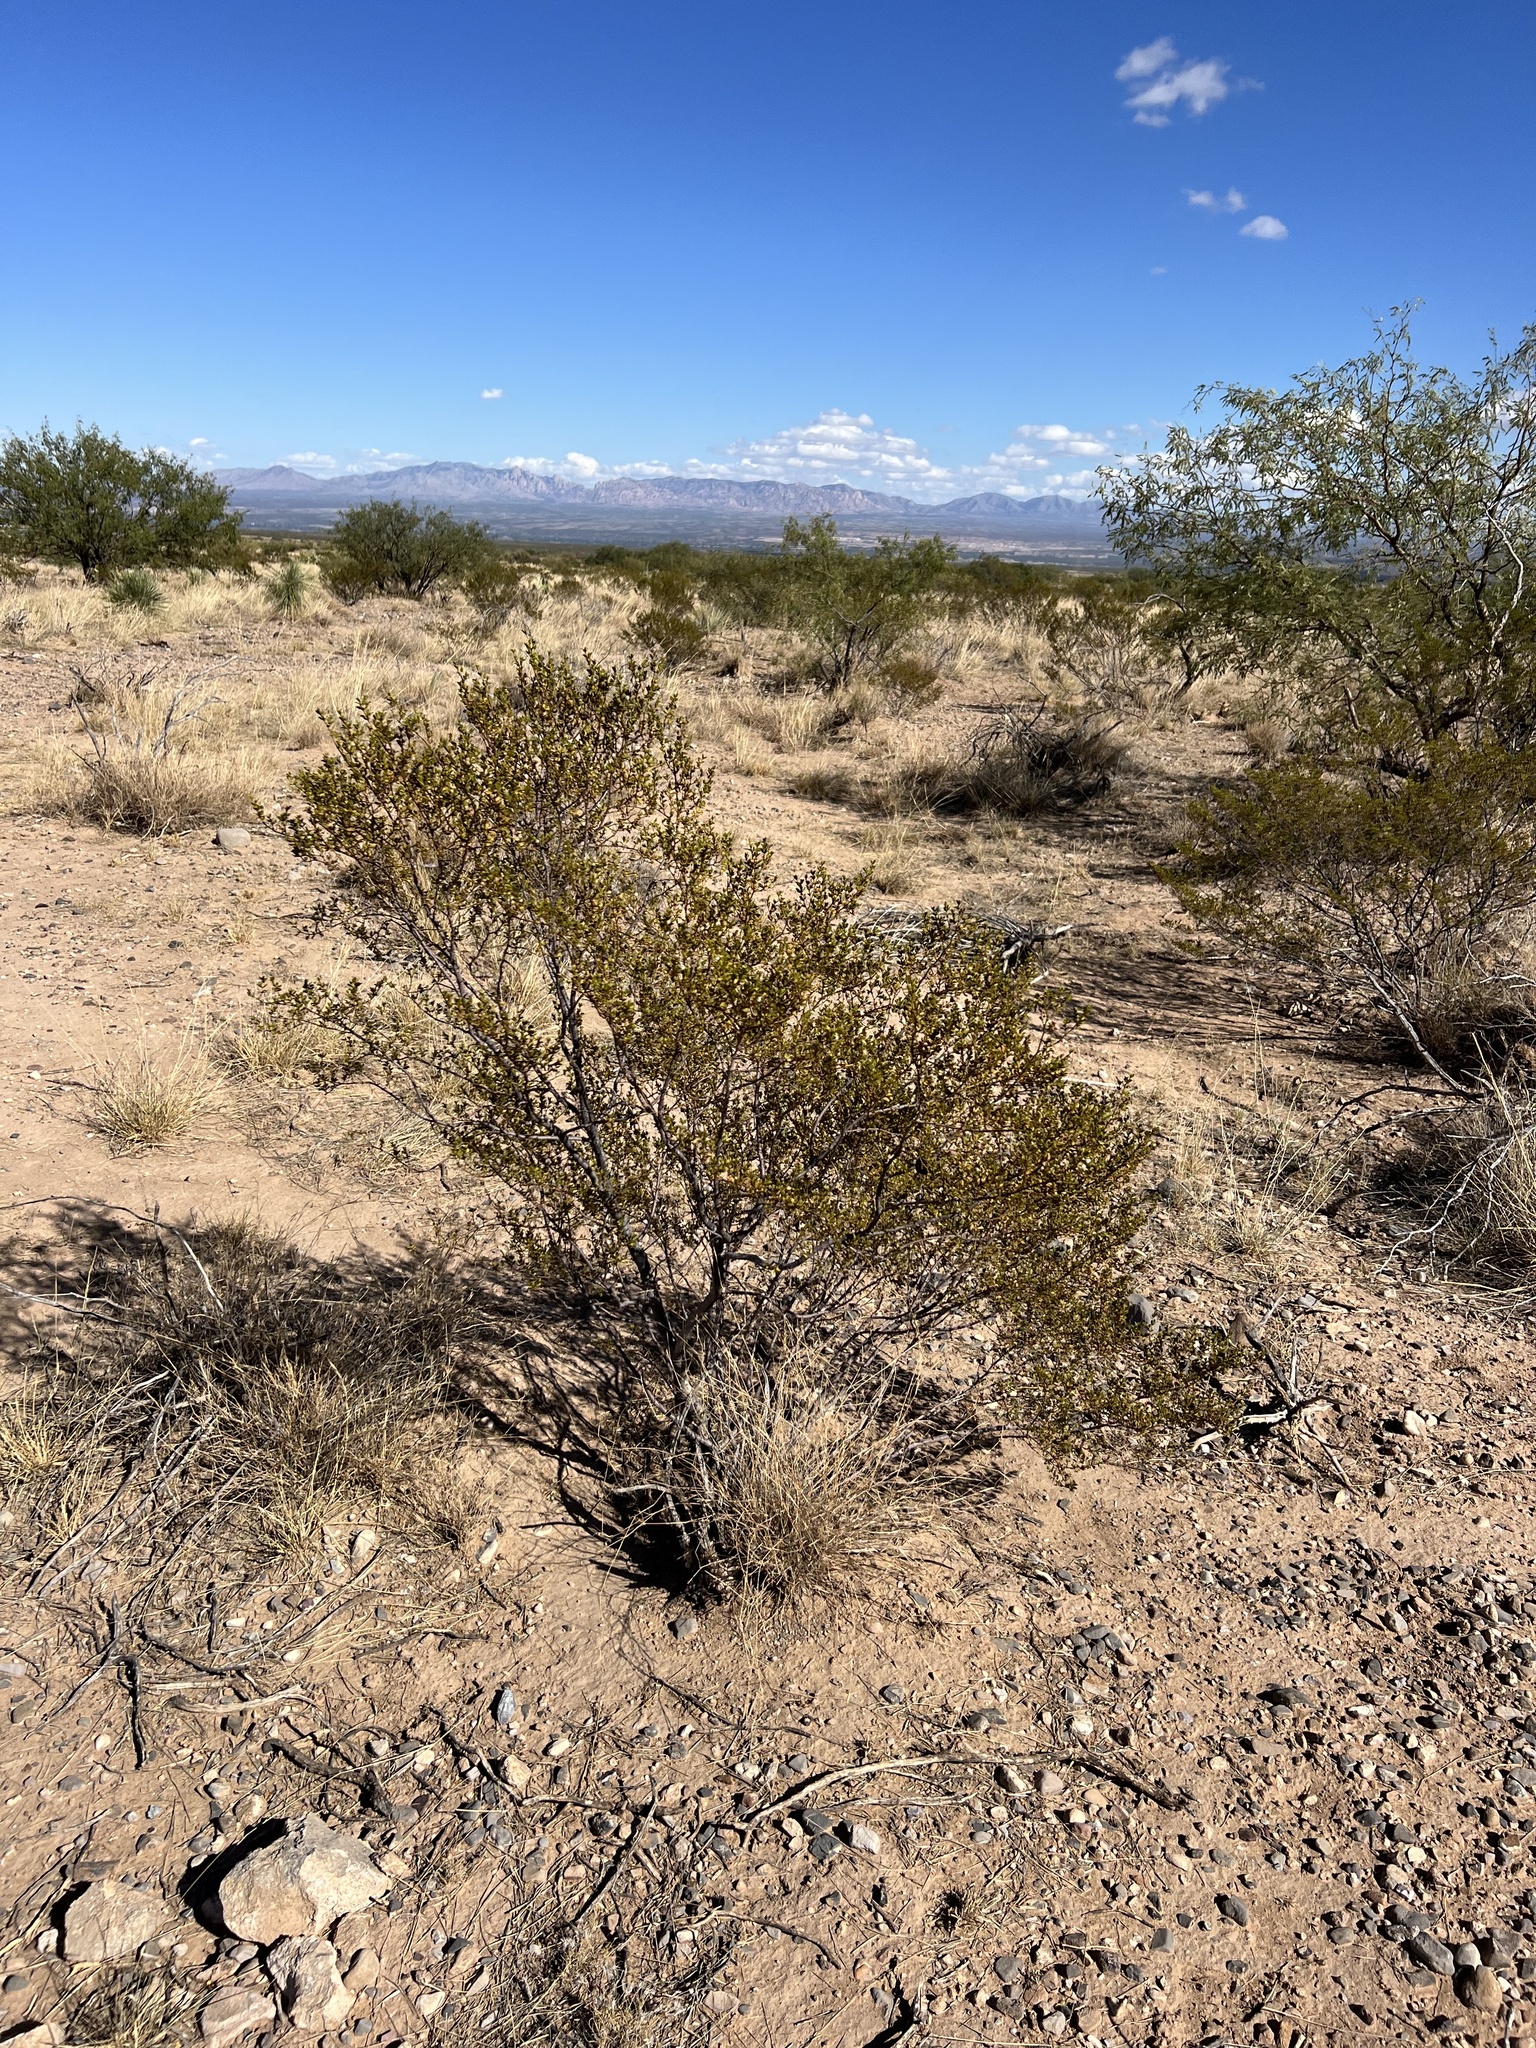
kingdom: Plantae
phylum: Tracheophyta
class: Magnoliopsida
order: Zygophyllales
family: Zygophyllaceae
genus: Larrea
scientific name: Larrea tridentata
